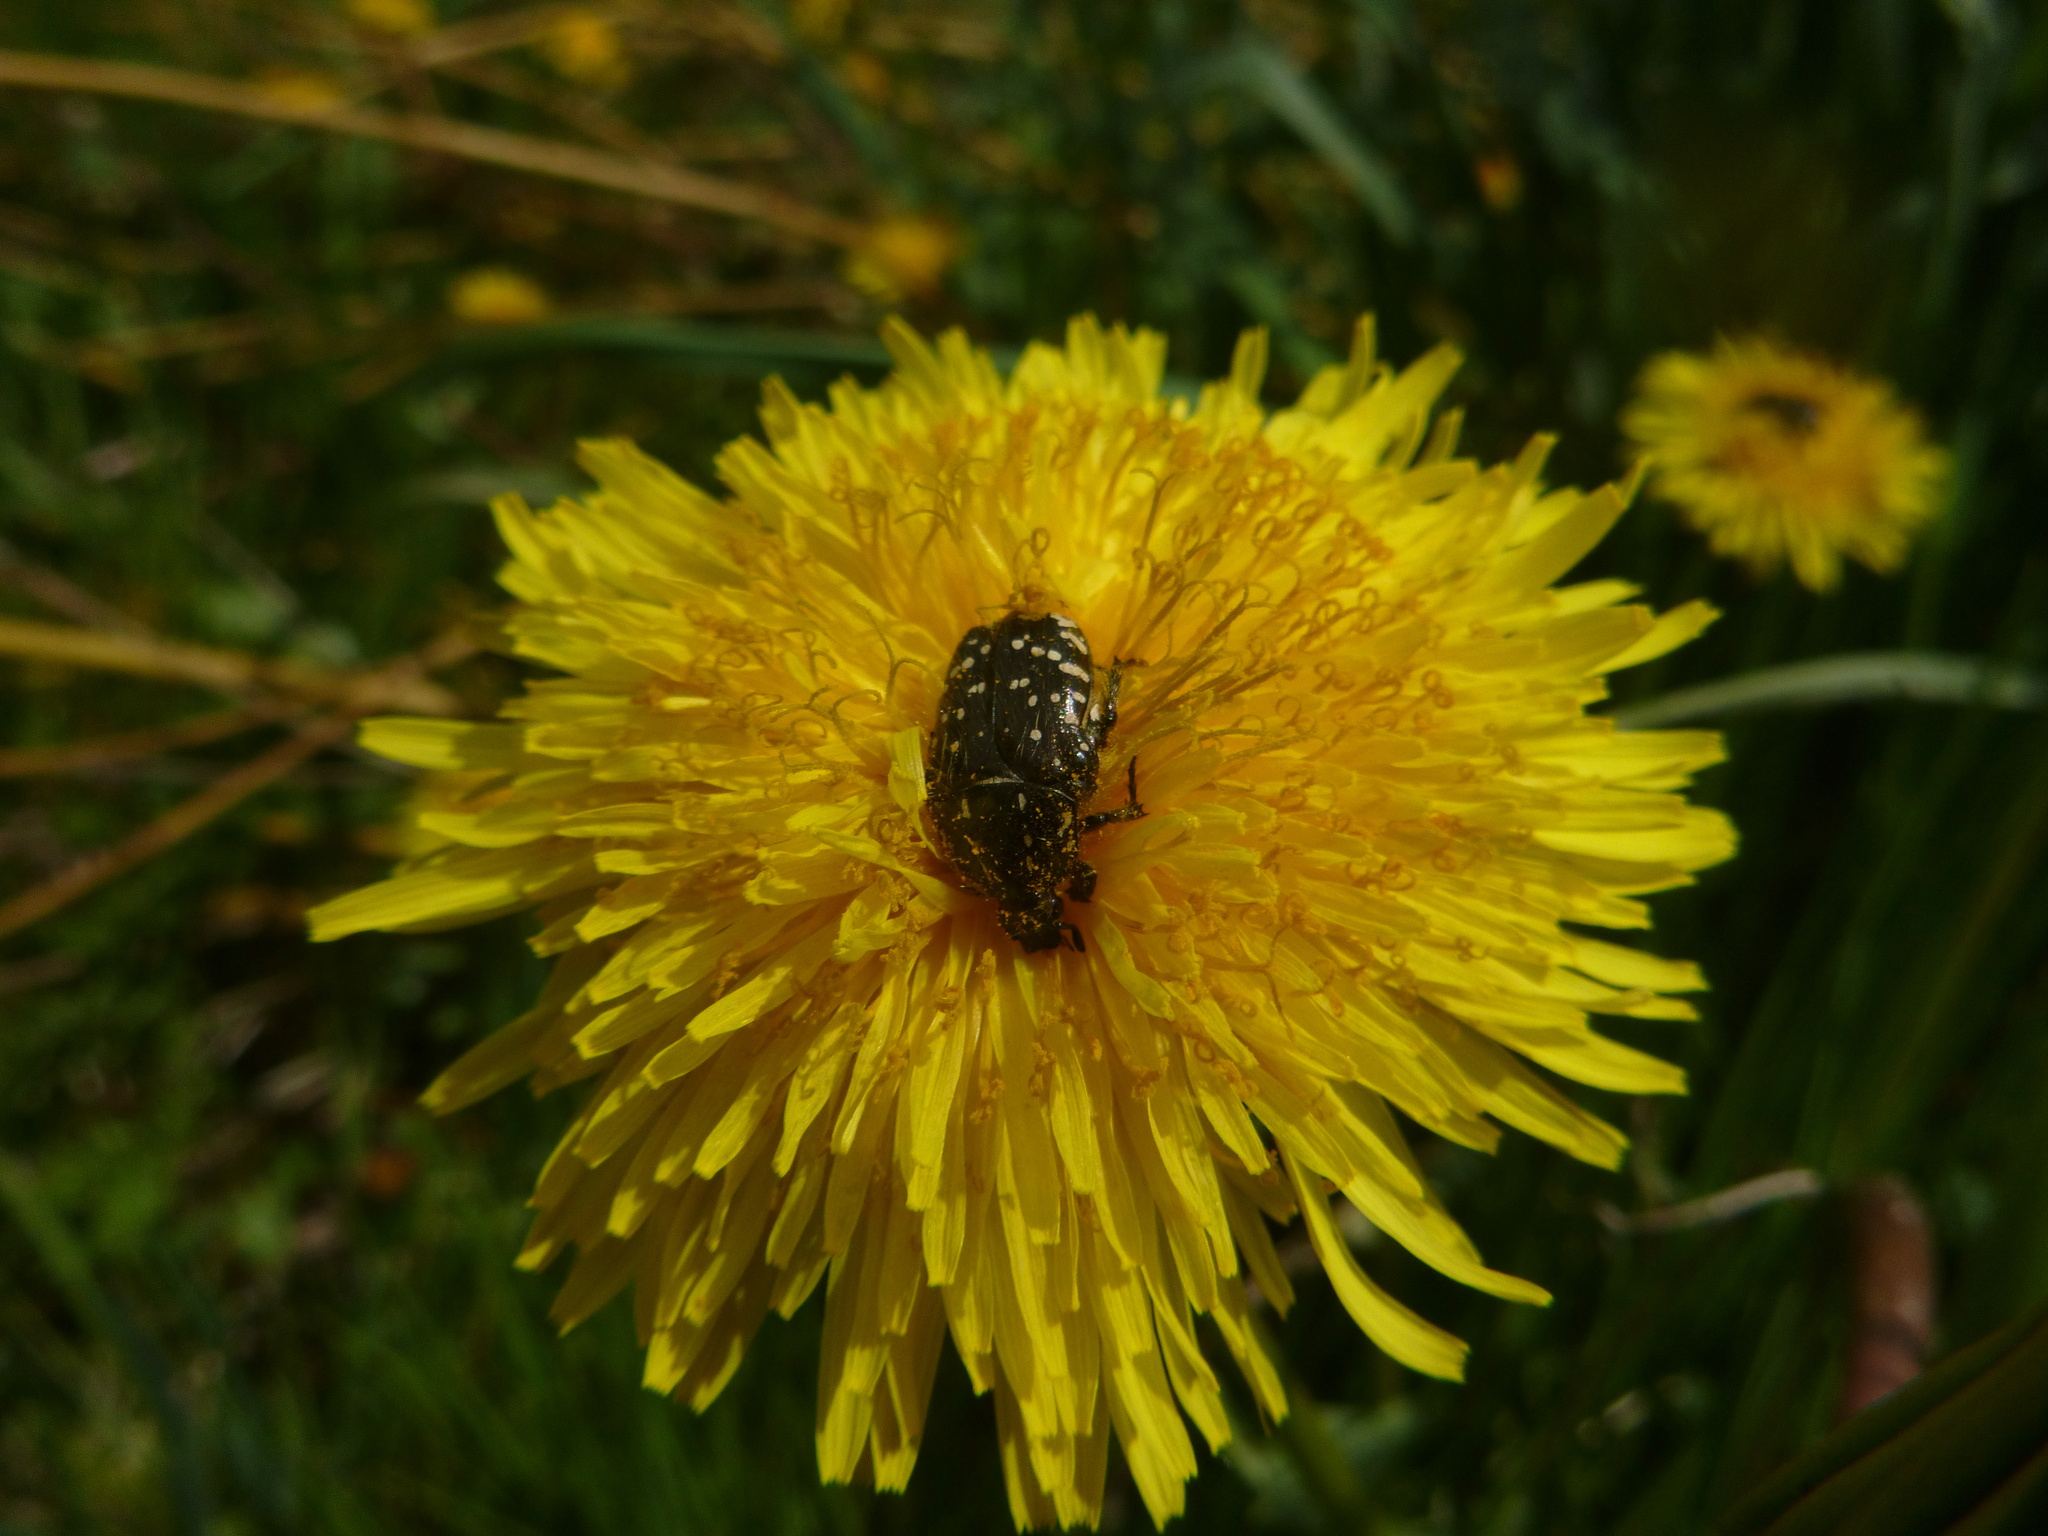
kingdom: Animalia
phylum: Arthropoda
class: Insecta
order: Coleoptera
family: Scarabaeidae
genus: Oxythyrea
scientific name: Oxythyrea funesta
